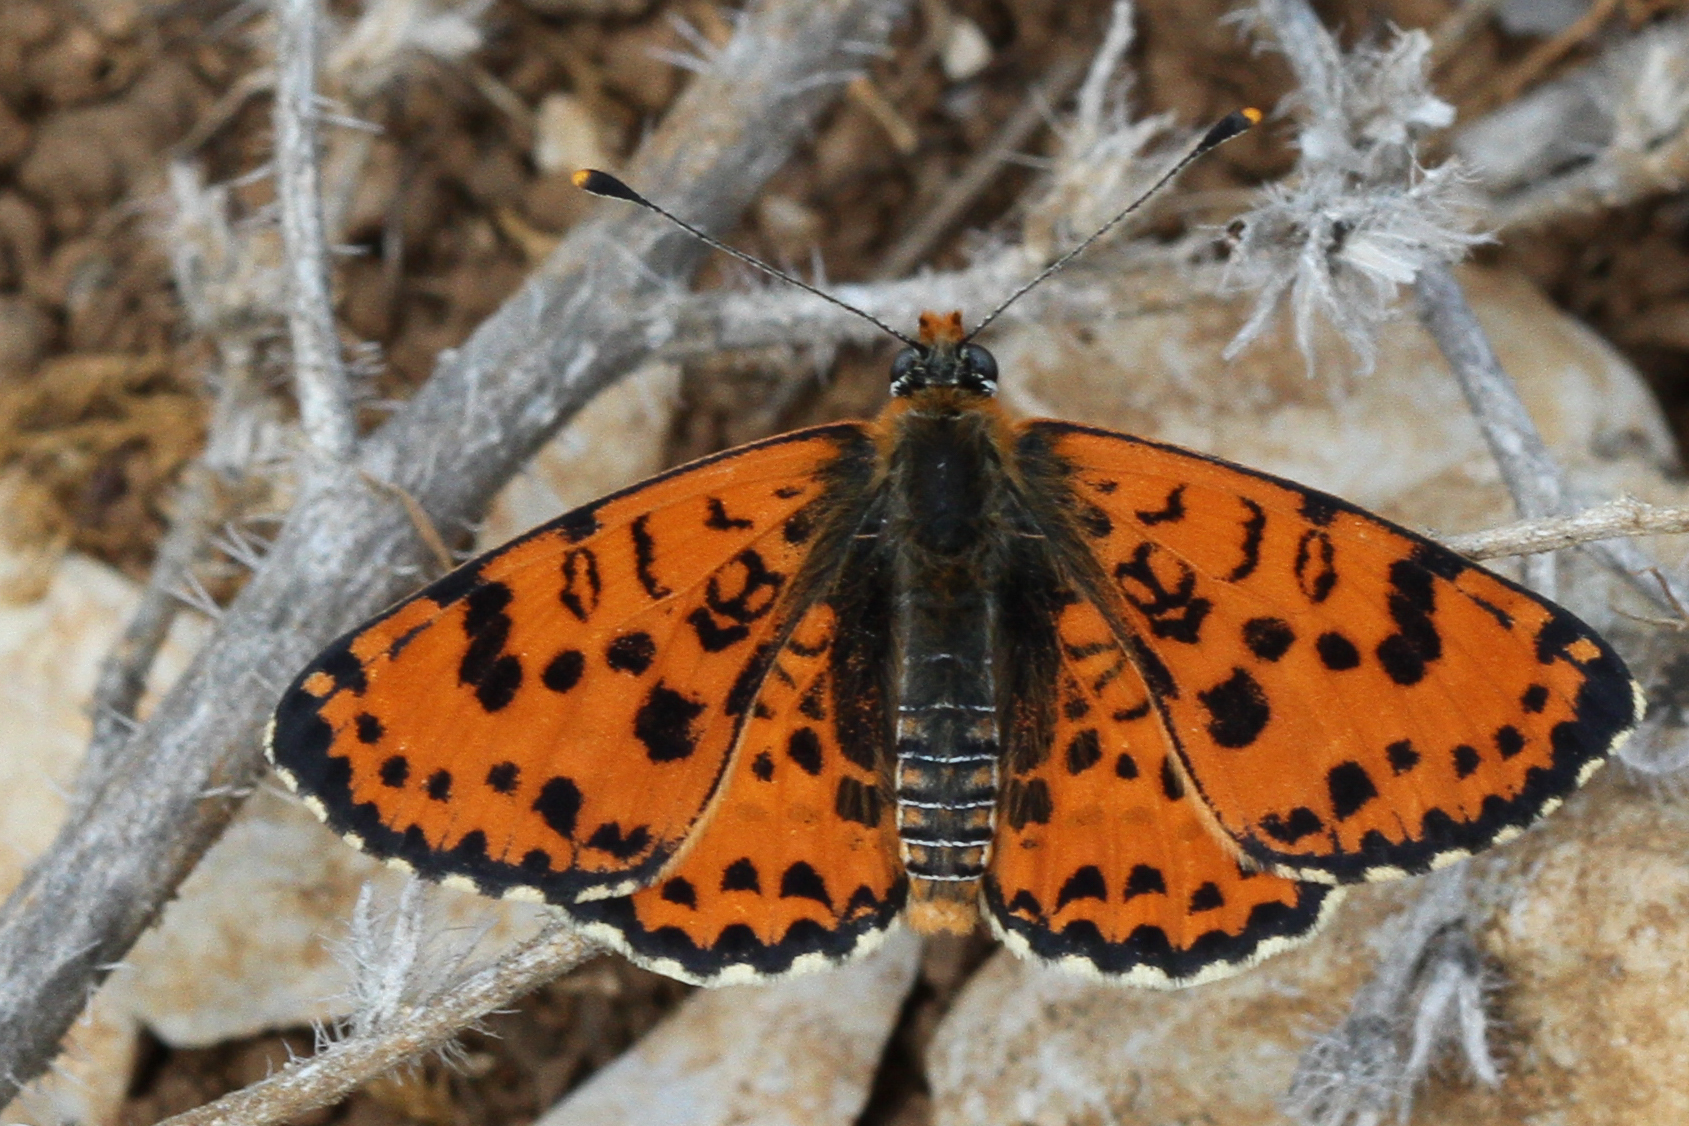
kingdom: Animalia
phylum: Arthropoda
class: Insecta
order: Lepidoptera
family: Nymphalidae
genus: Melitaea
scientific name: Melitaea didyma
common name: Spotted fritillary
